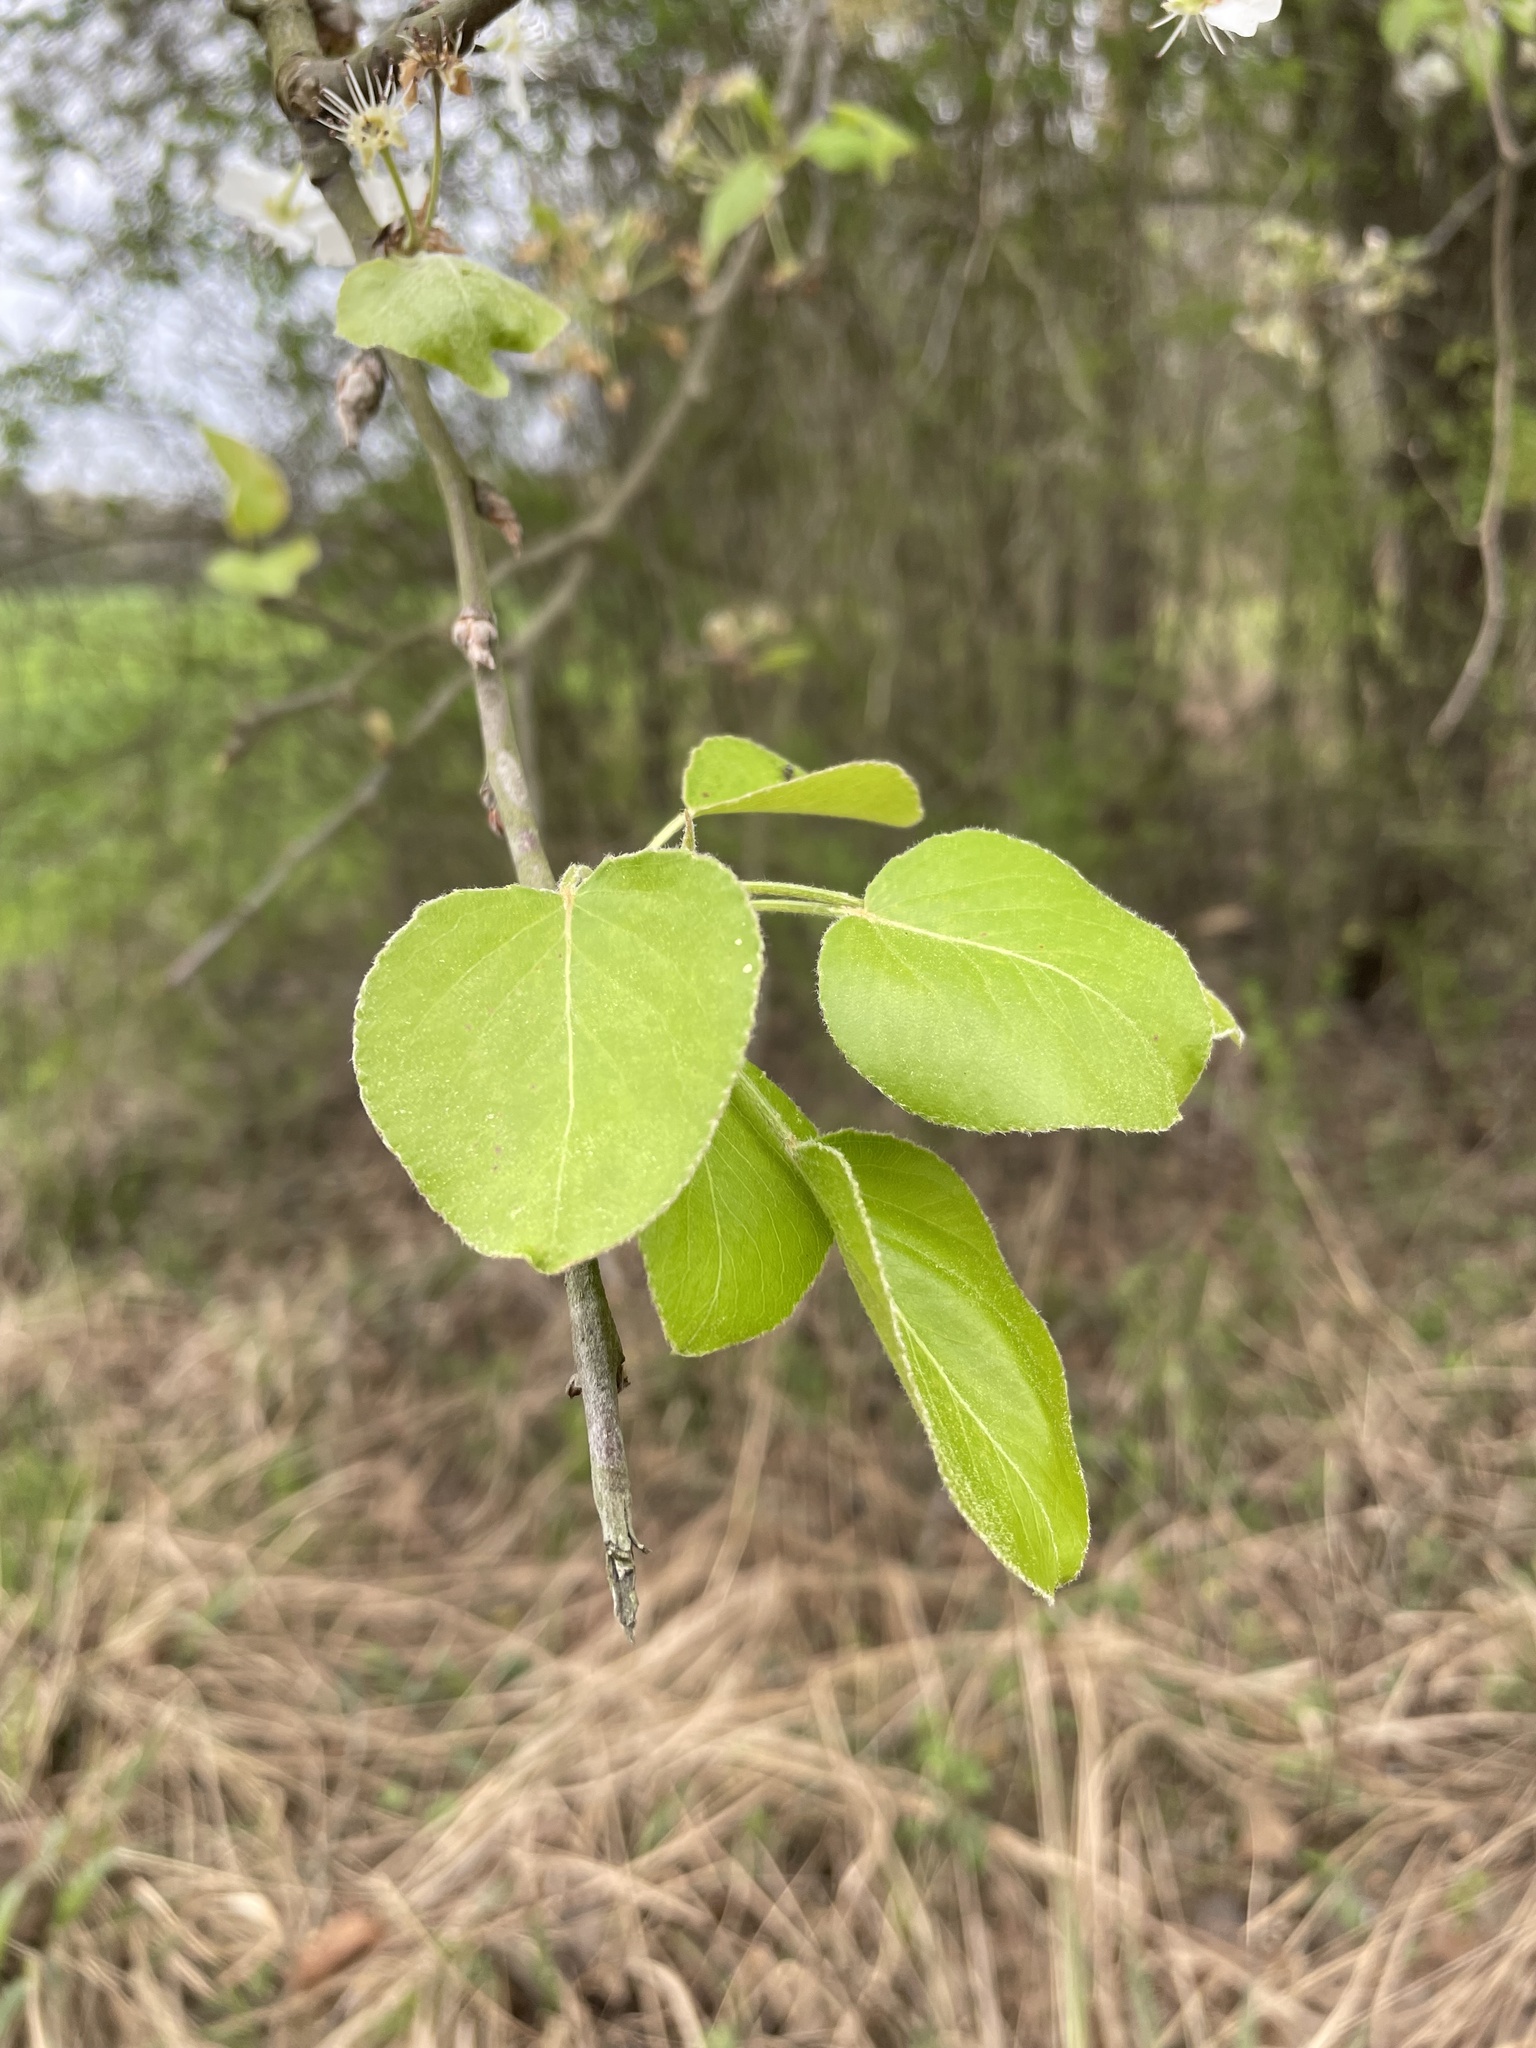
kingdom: Plantae
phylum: Tracheophyta
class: Magnoliopsida
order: Rosales
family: Rosaceae
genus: Pyrus
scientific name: Pyrus calleryana
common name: Callery pear
